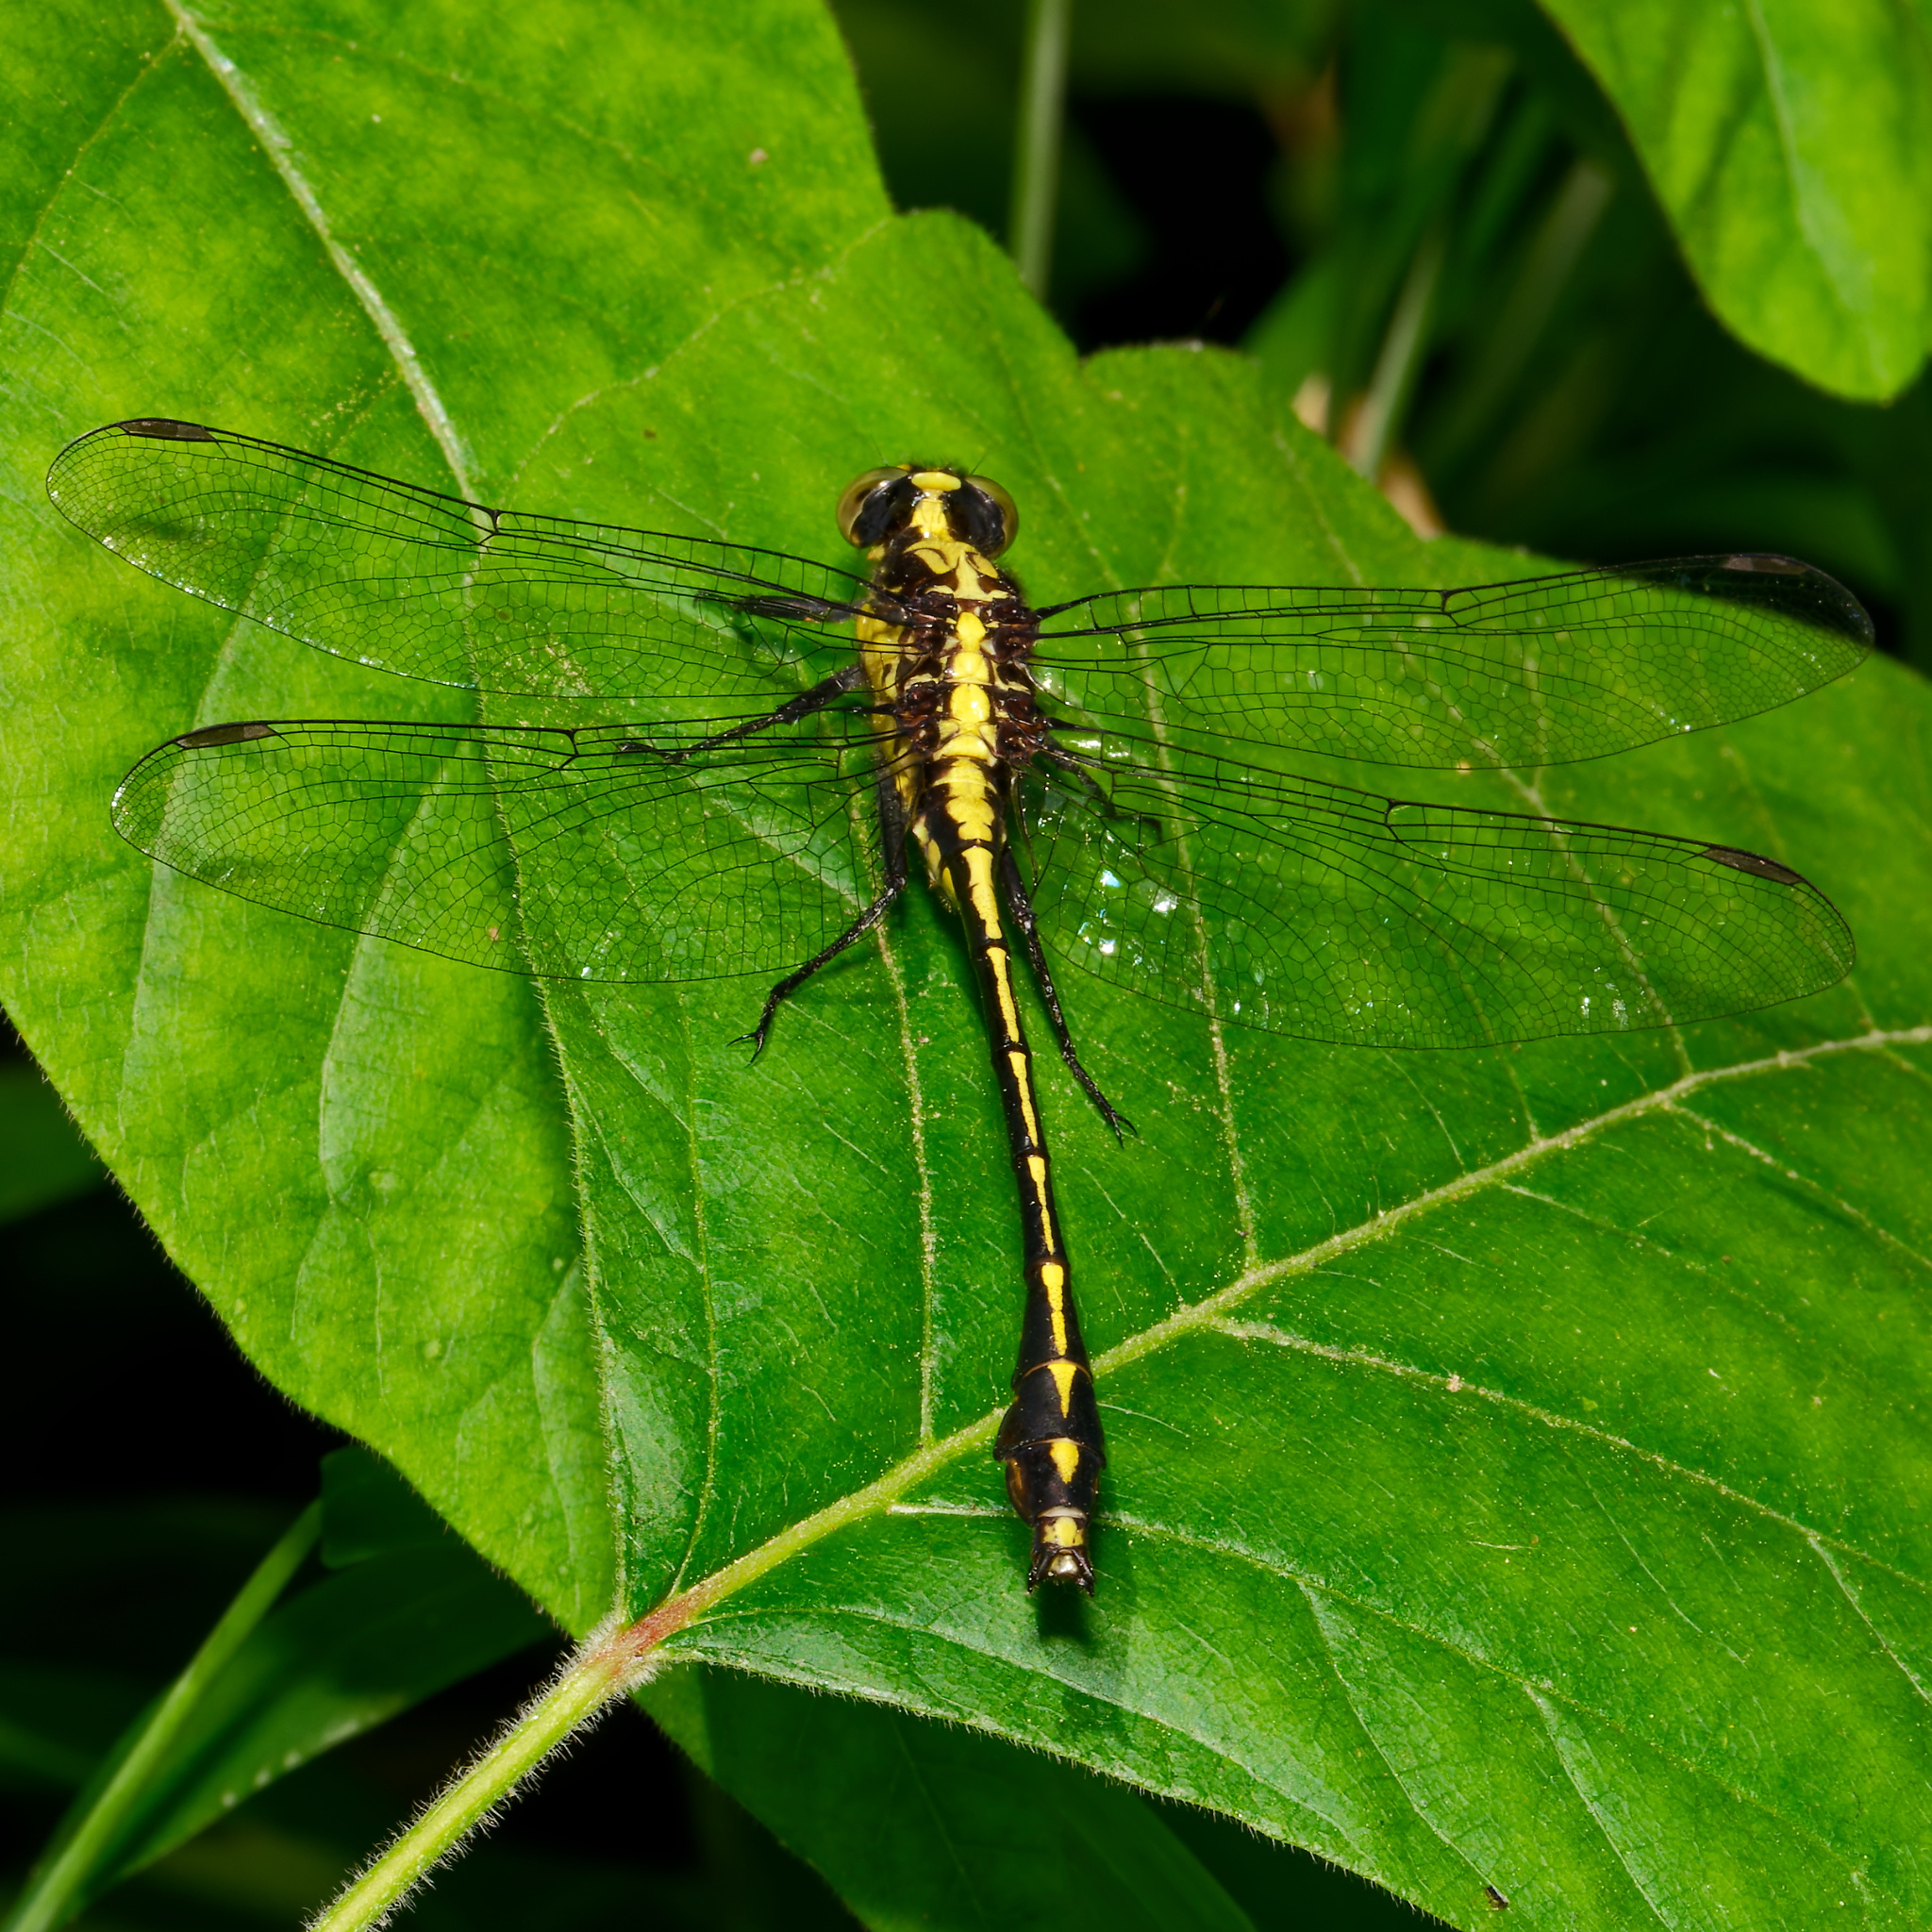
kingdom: Animalia
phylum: Arthropoda
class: Insecta
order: Odonata
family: Gomphidae
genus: Dromogomphus
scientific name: Dromogomphus spinosus
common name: Black-shouldered spinyleg
